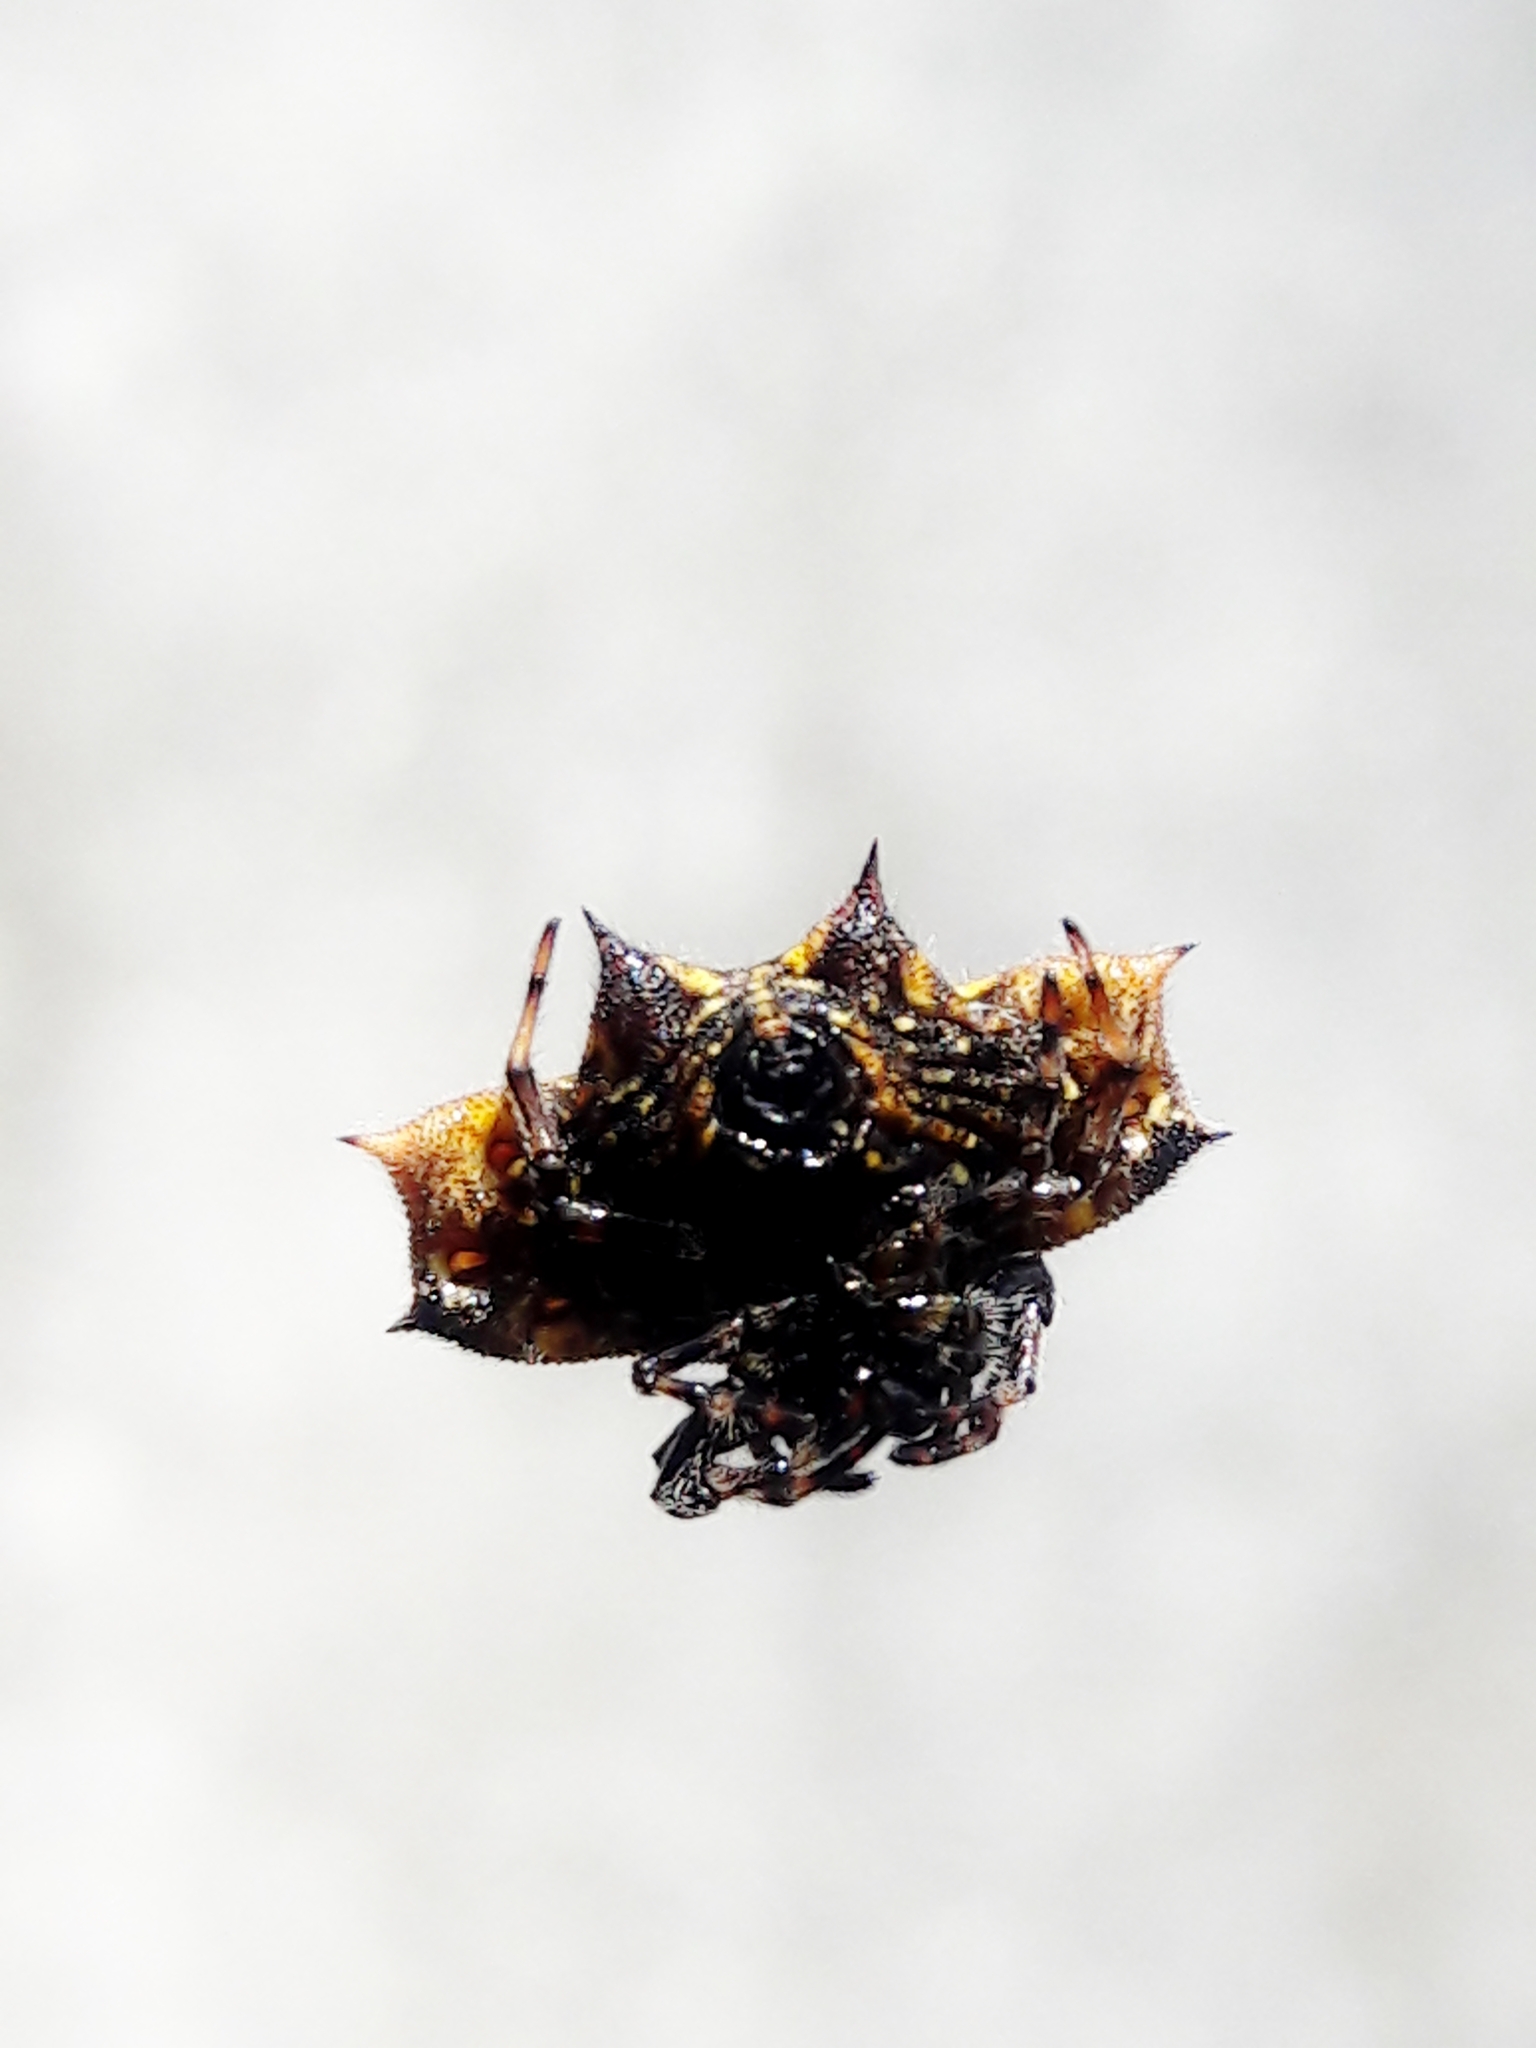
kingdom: Animalia
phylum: Arthropoda
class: Arachnida
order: Araneae
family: Araneidae
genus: Gasteracantha
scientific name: Gasteracantha cancriformis
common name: Orb weavers
